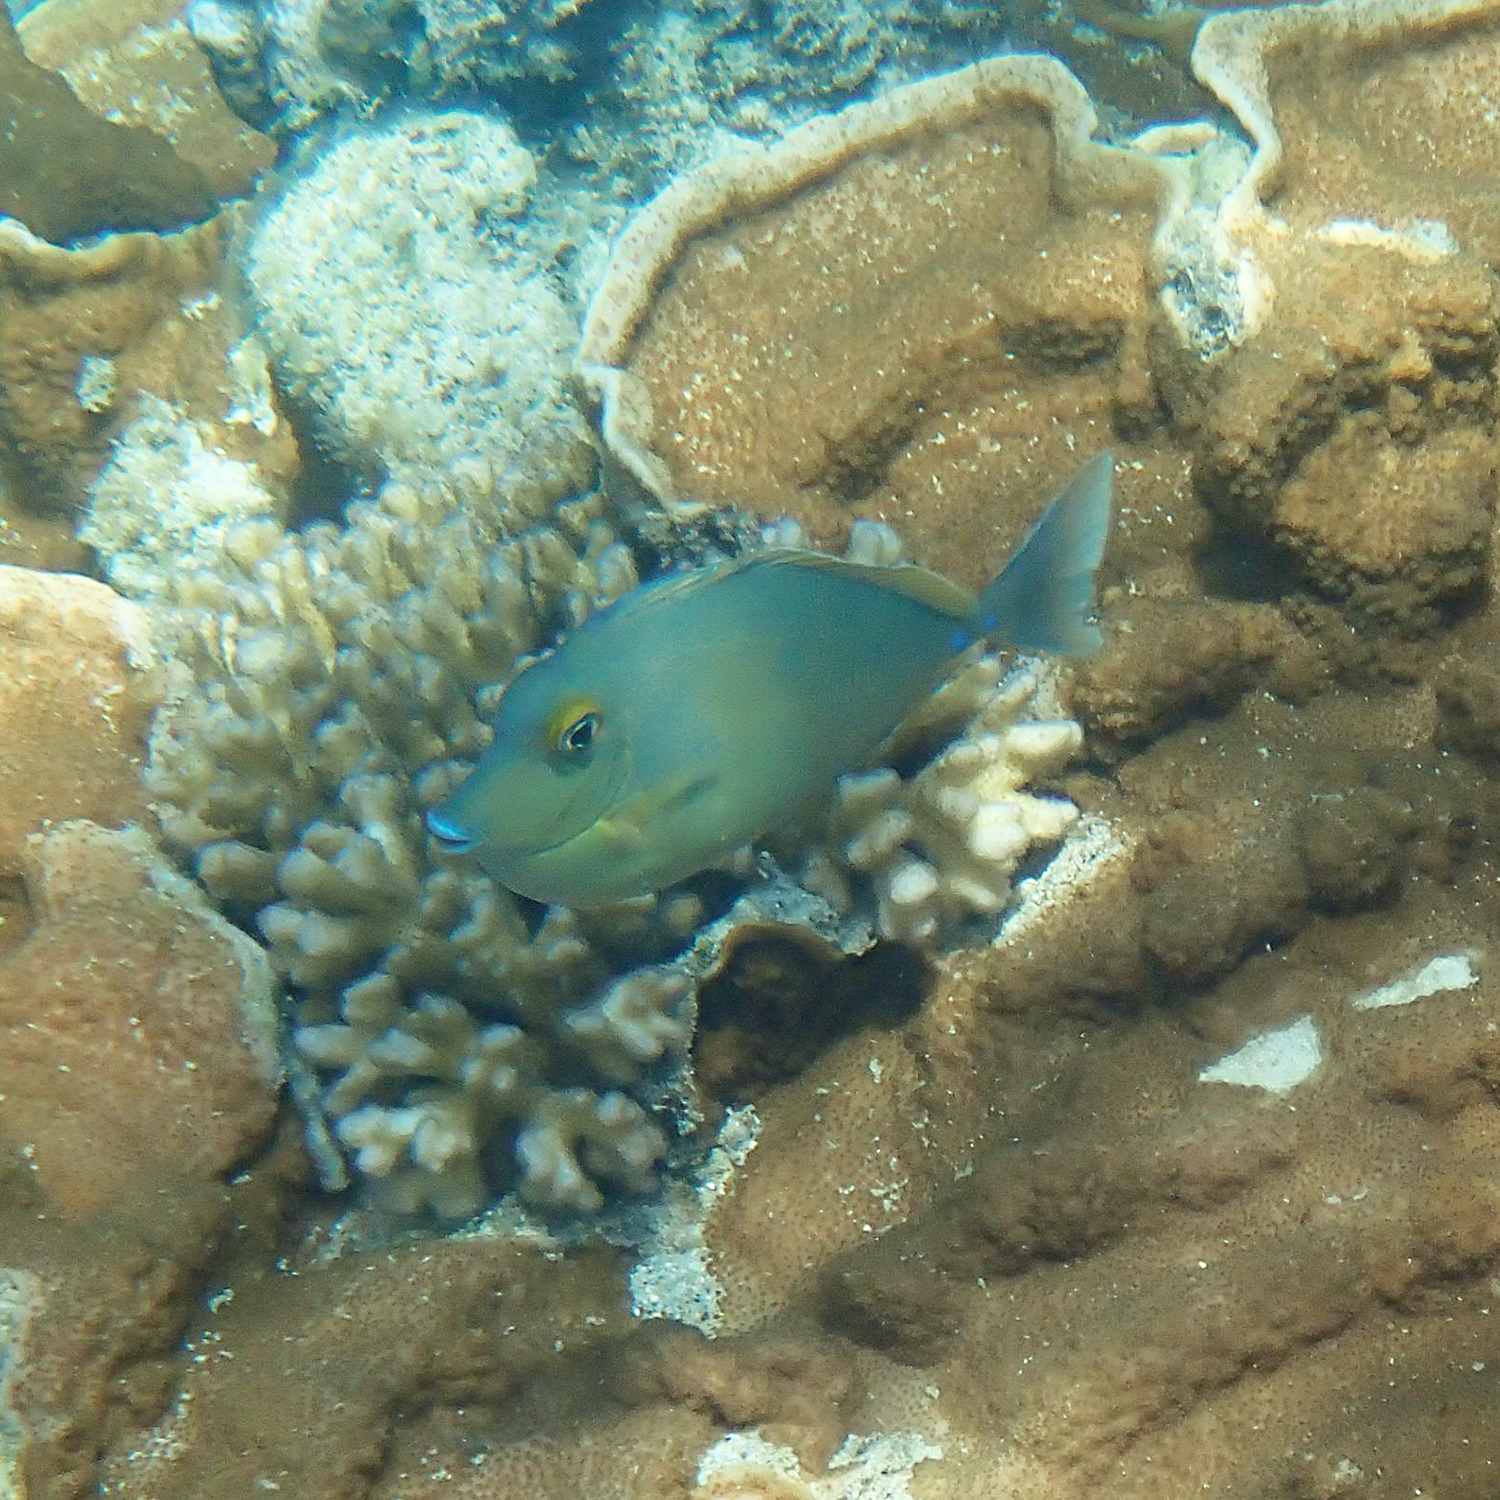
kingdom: Animalia
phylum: Chordata
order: Perciformes
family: Acanthuridae
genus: Naso
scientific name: Naso unicornis
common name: Bluespine unicornfish
